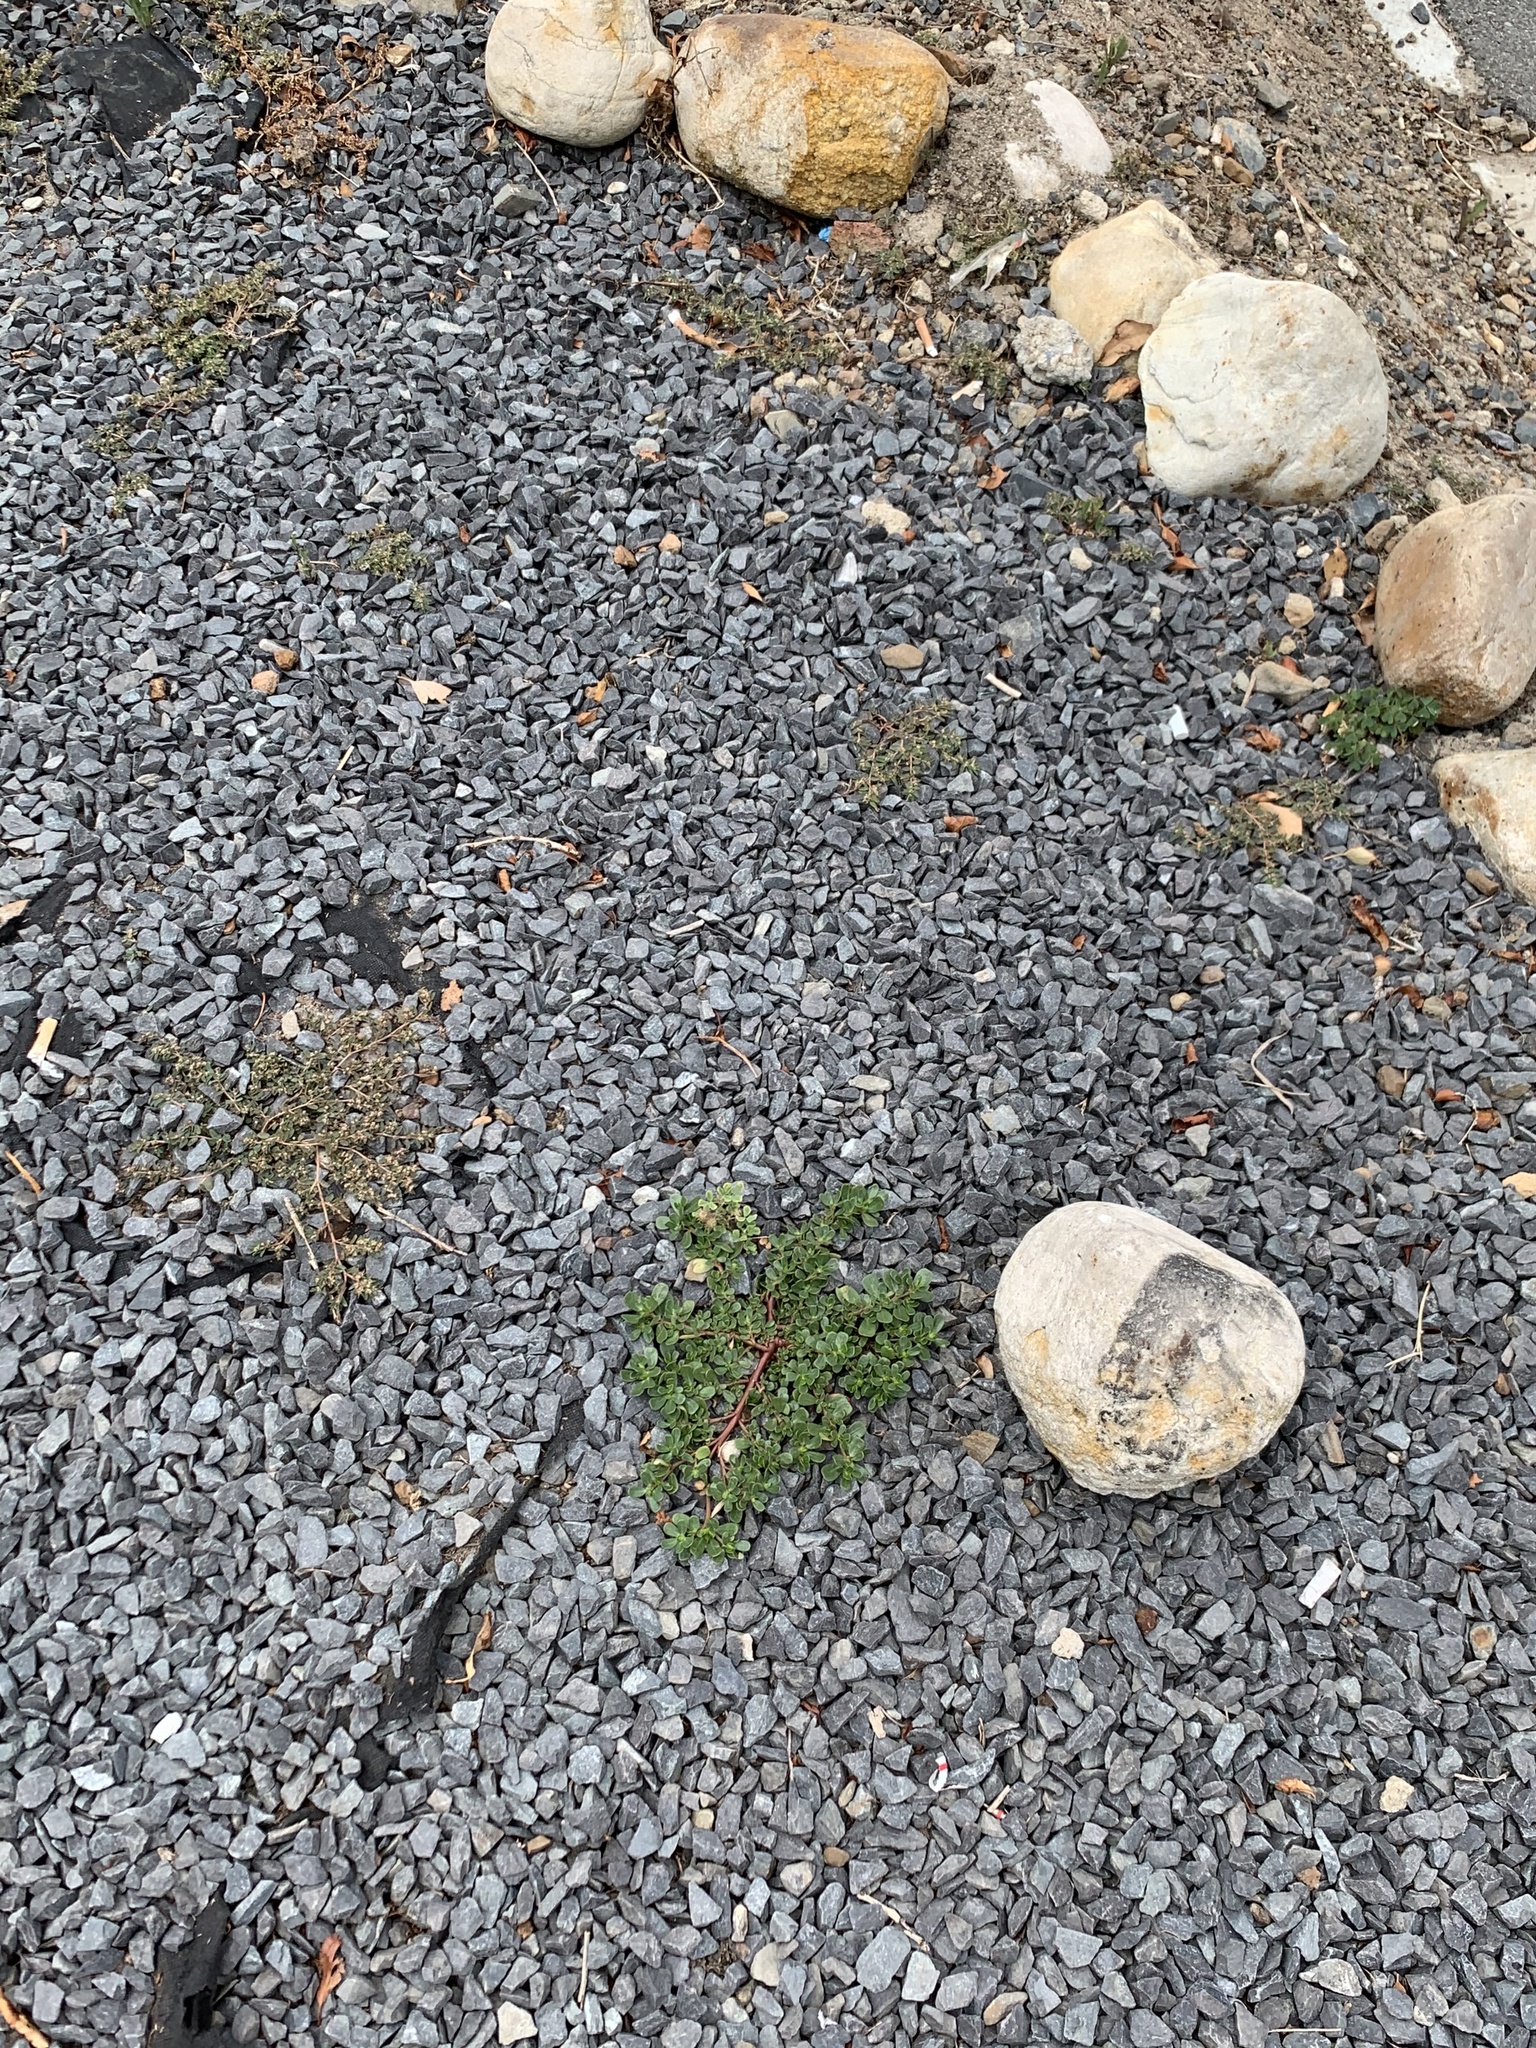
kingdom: Plantae
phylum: Tracheophyta
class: Magnoliopsida
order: Caryophyllales
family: Portulacaceae
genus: Portulaca
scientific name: Portulaca oleracea
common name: Common purslane
